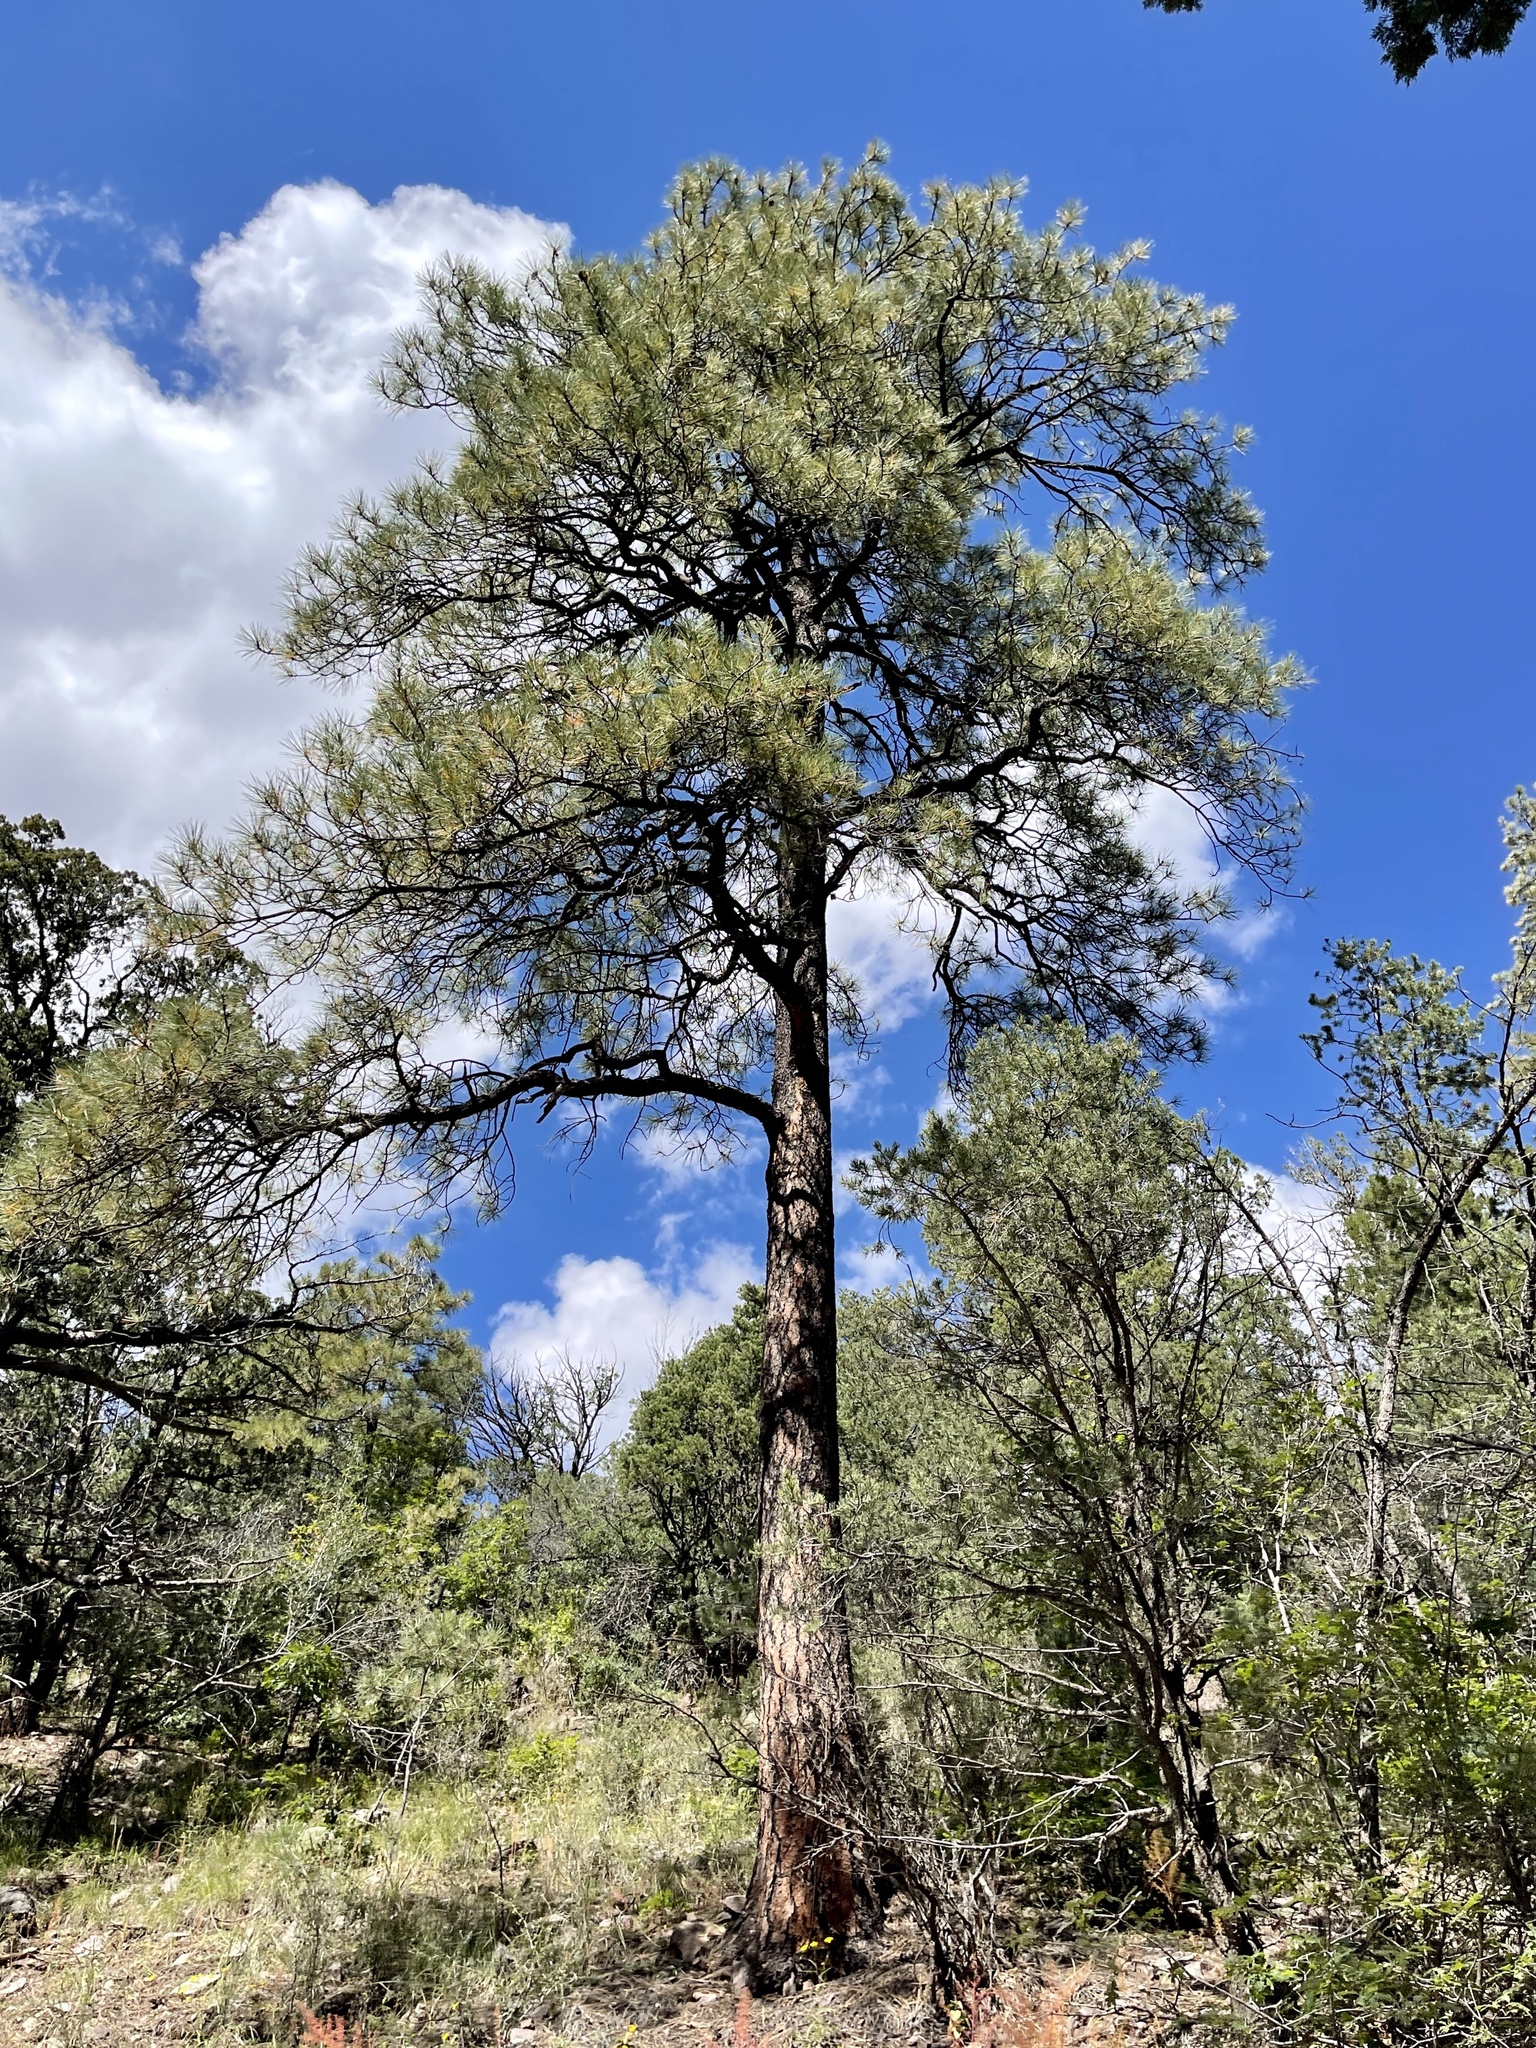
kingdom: Plantae
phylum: Tracheophyta
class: Pinopsida
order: Pinales
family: Pinaceae
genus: Pinus
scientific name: Pinus ponderosa
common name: Western yellow-pine
